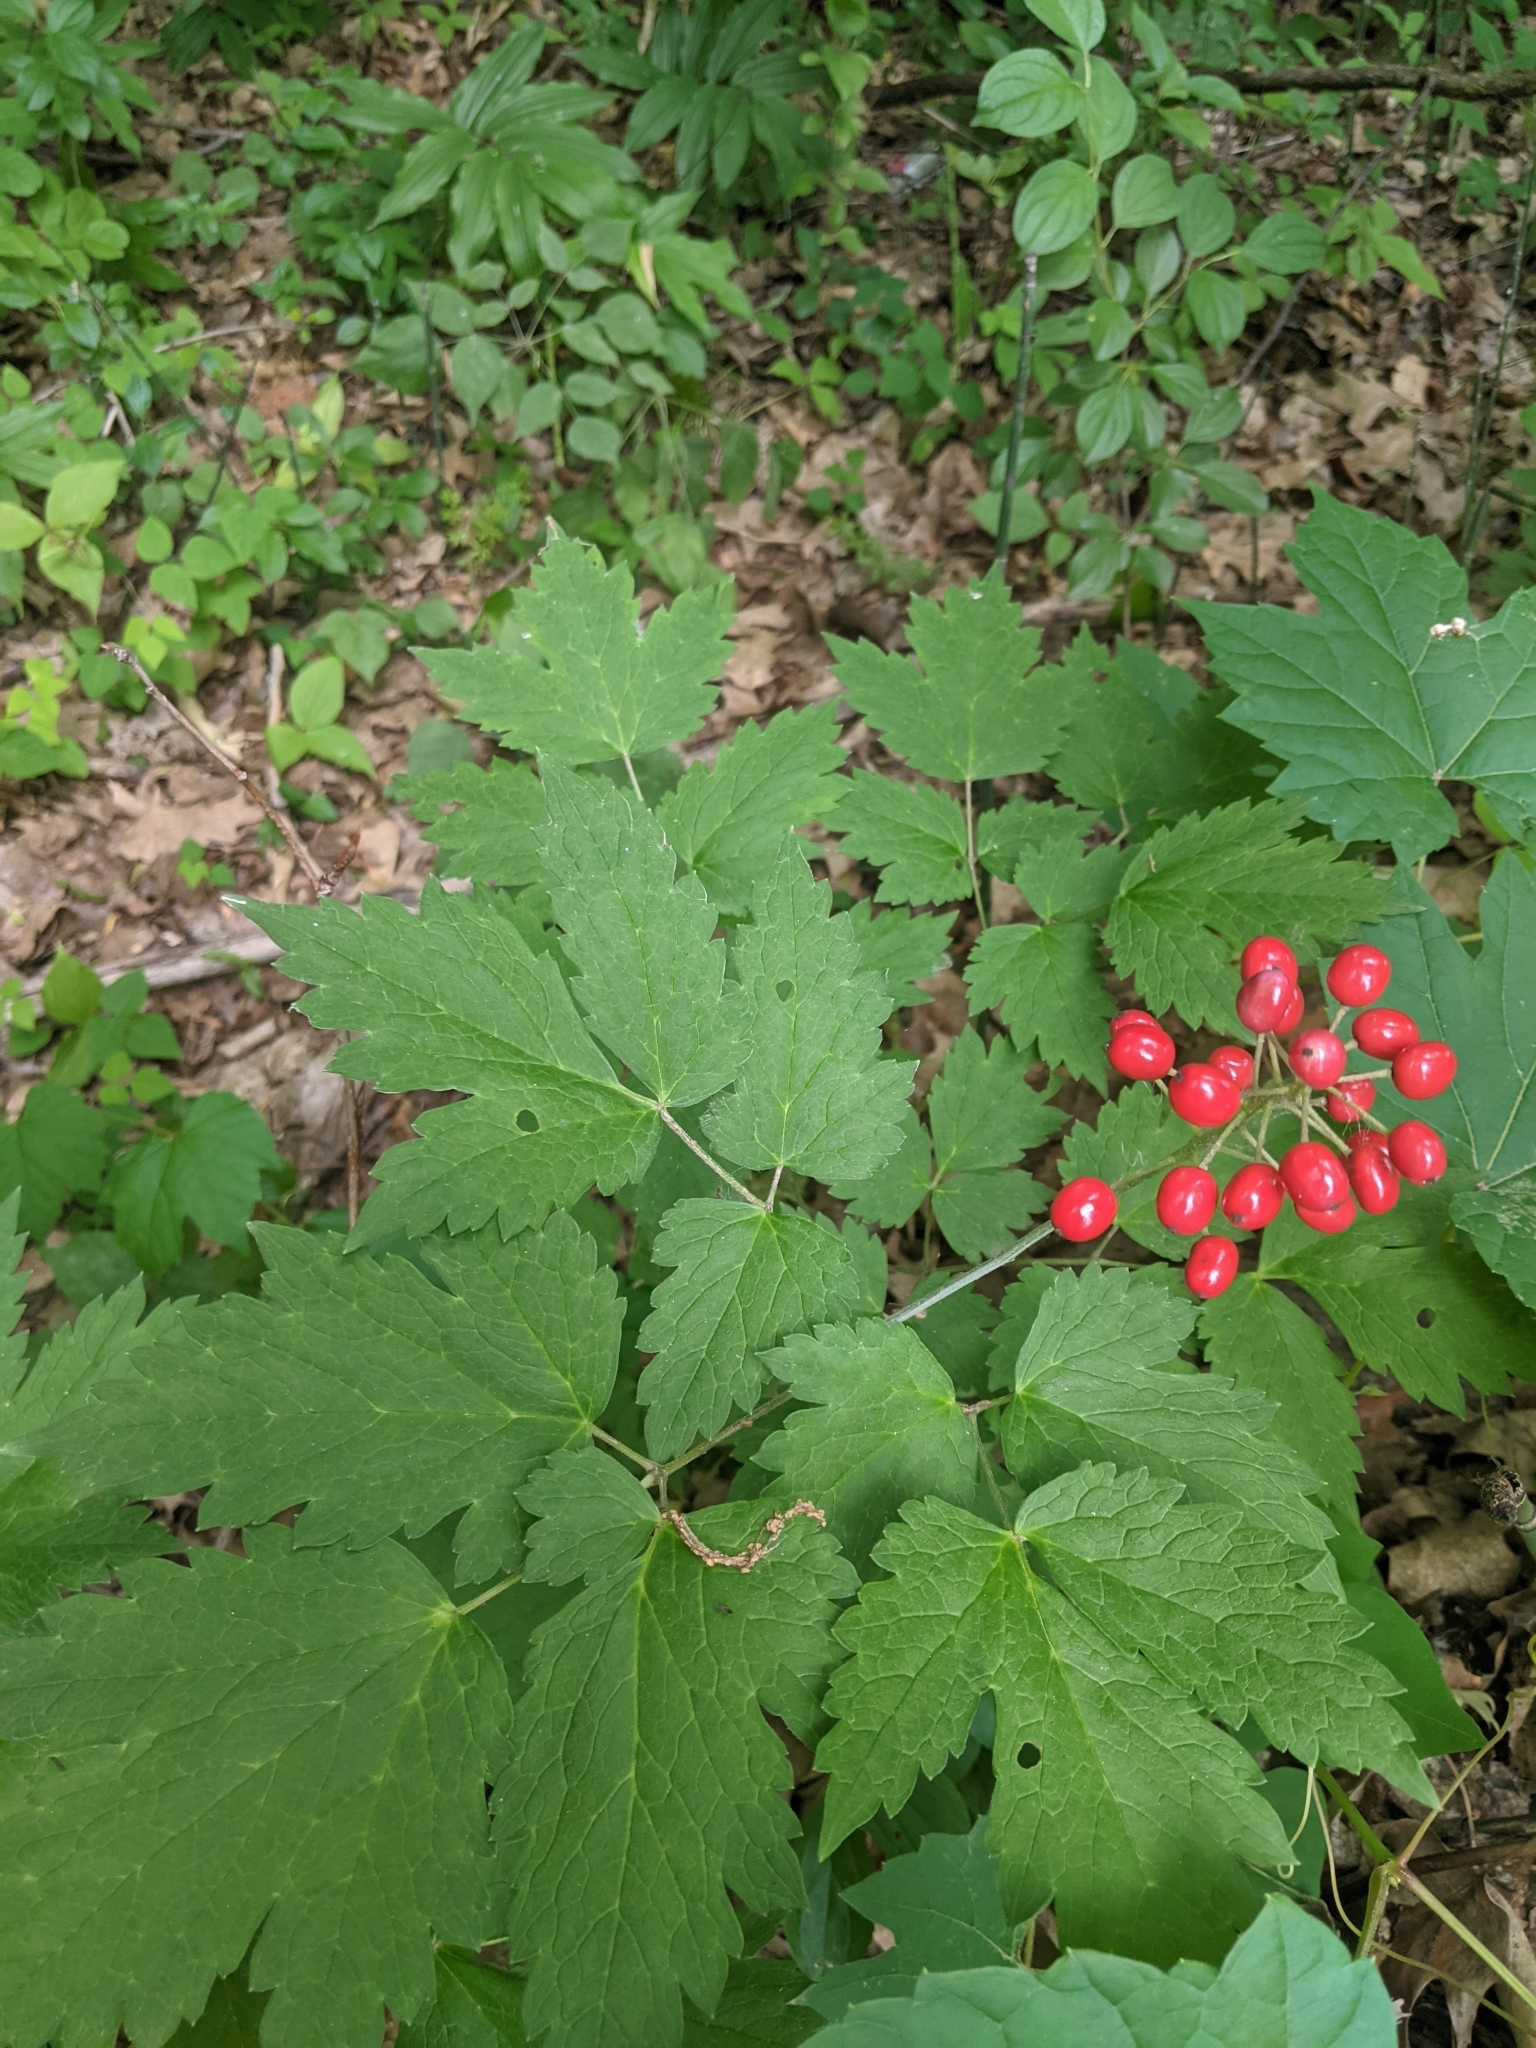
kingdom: Plantae
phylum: Tracheophyta
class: Magnoliopsida
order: Ranunculales
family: Ranunculaceae
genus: Actaea
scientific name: Actaea rubra
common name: Red baneberry
